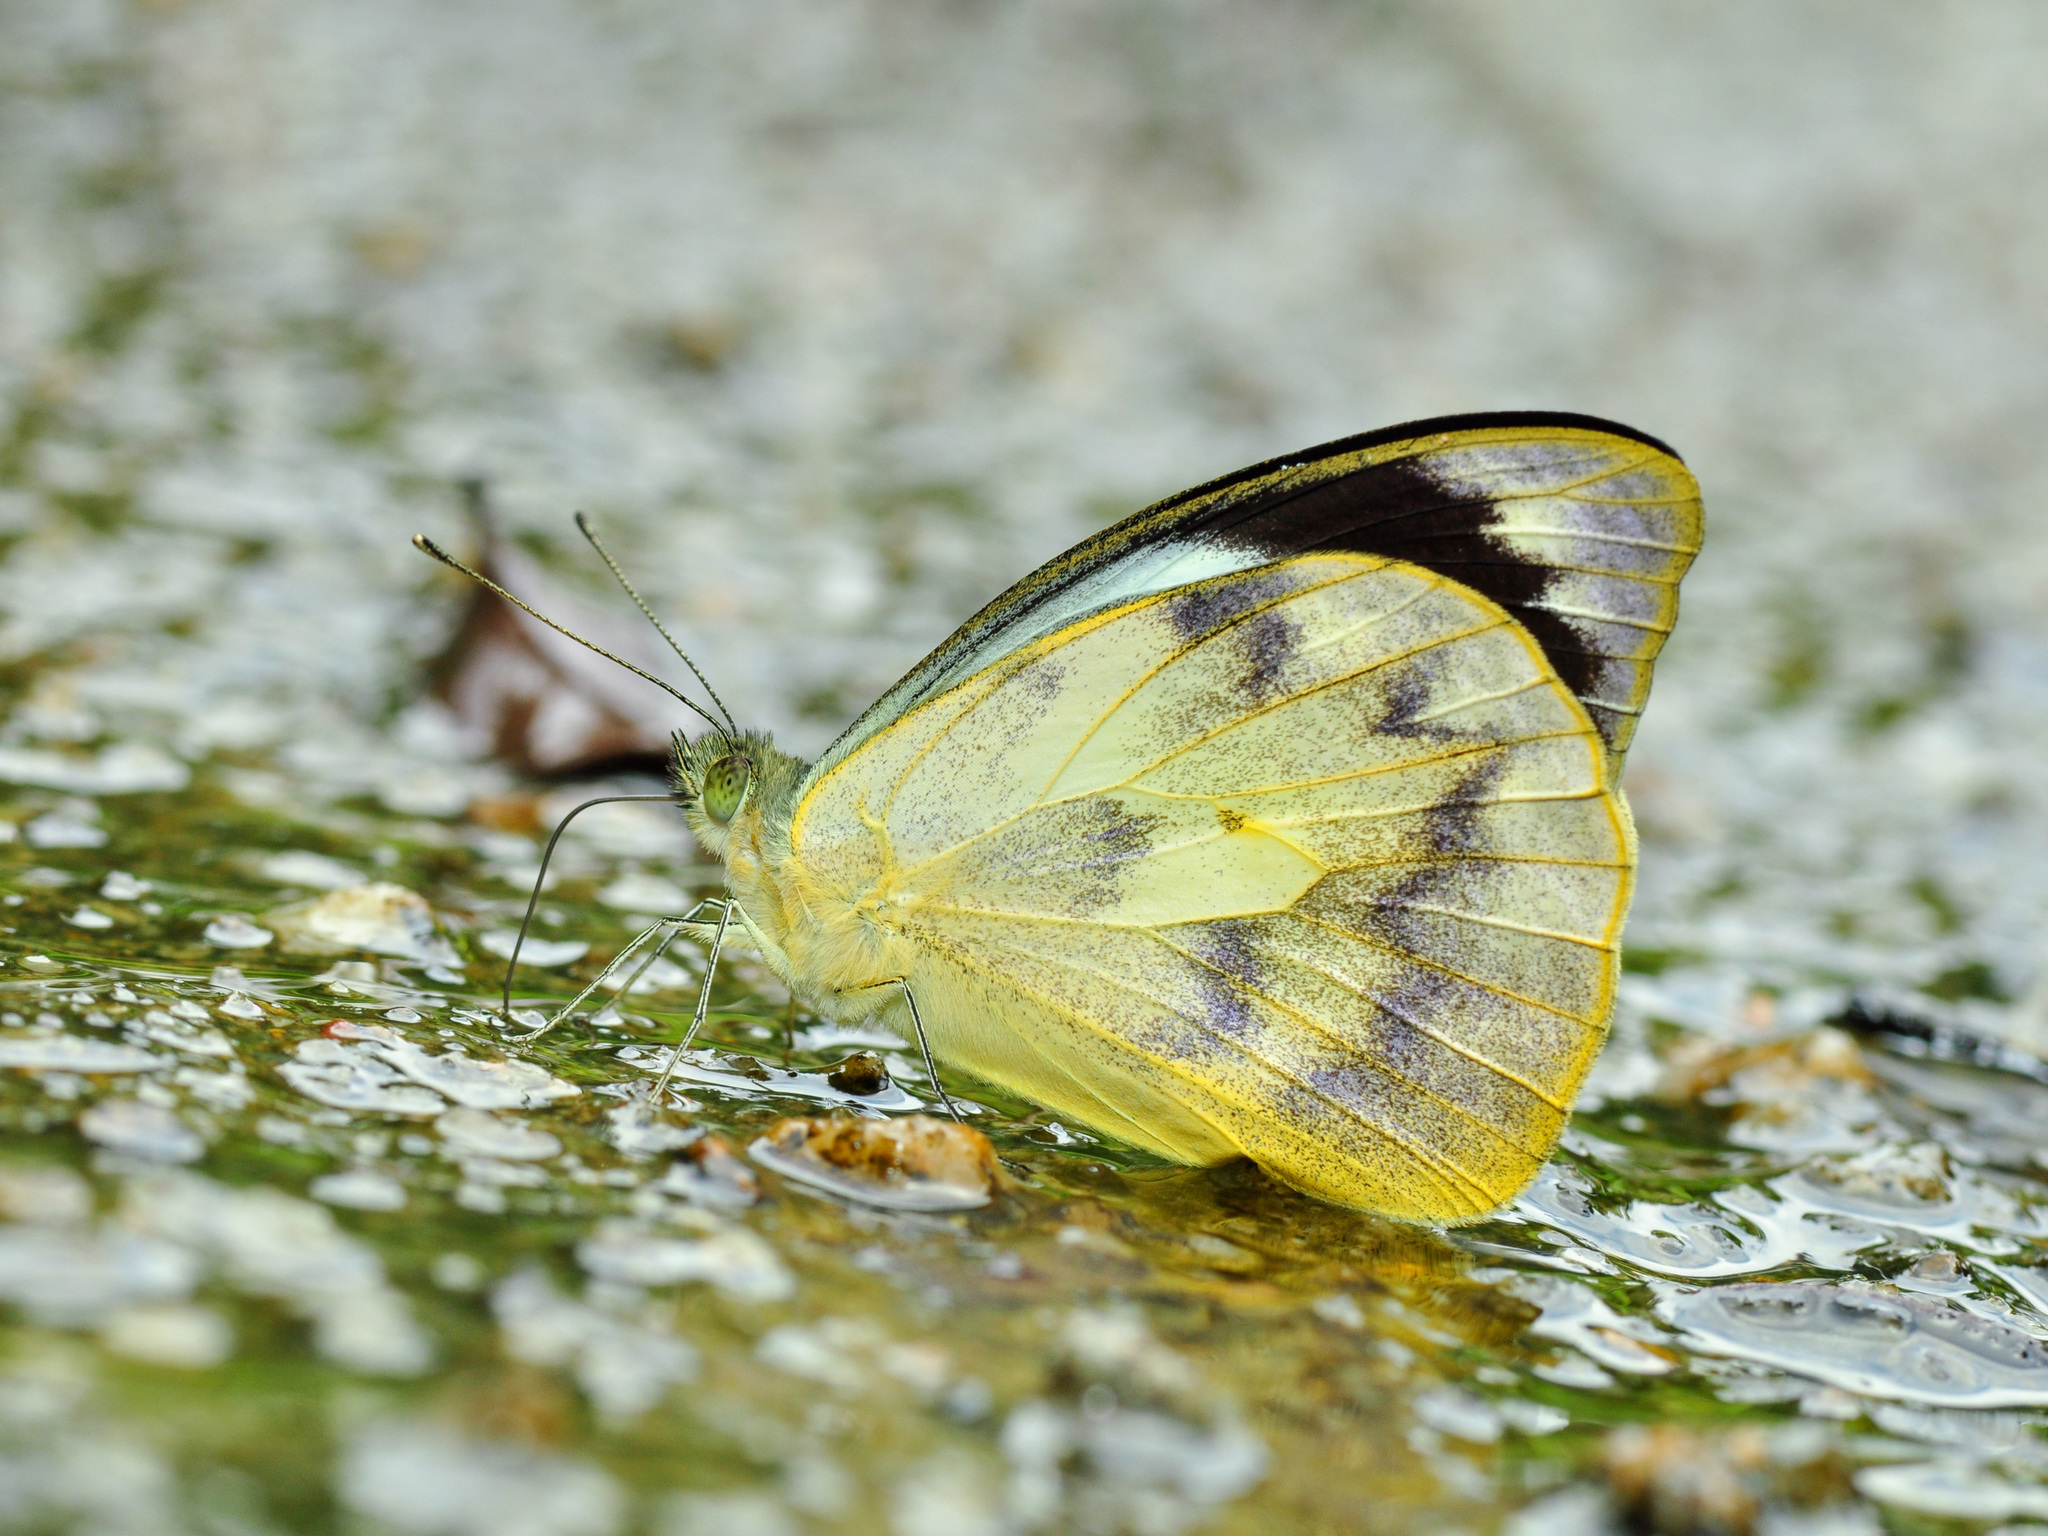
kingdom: Animalia
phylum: Arthropoda
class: Insecta
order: Lepidoptera
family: Pieridae
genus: Appias
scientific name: Appias pandione
